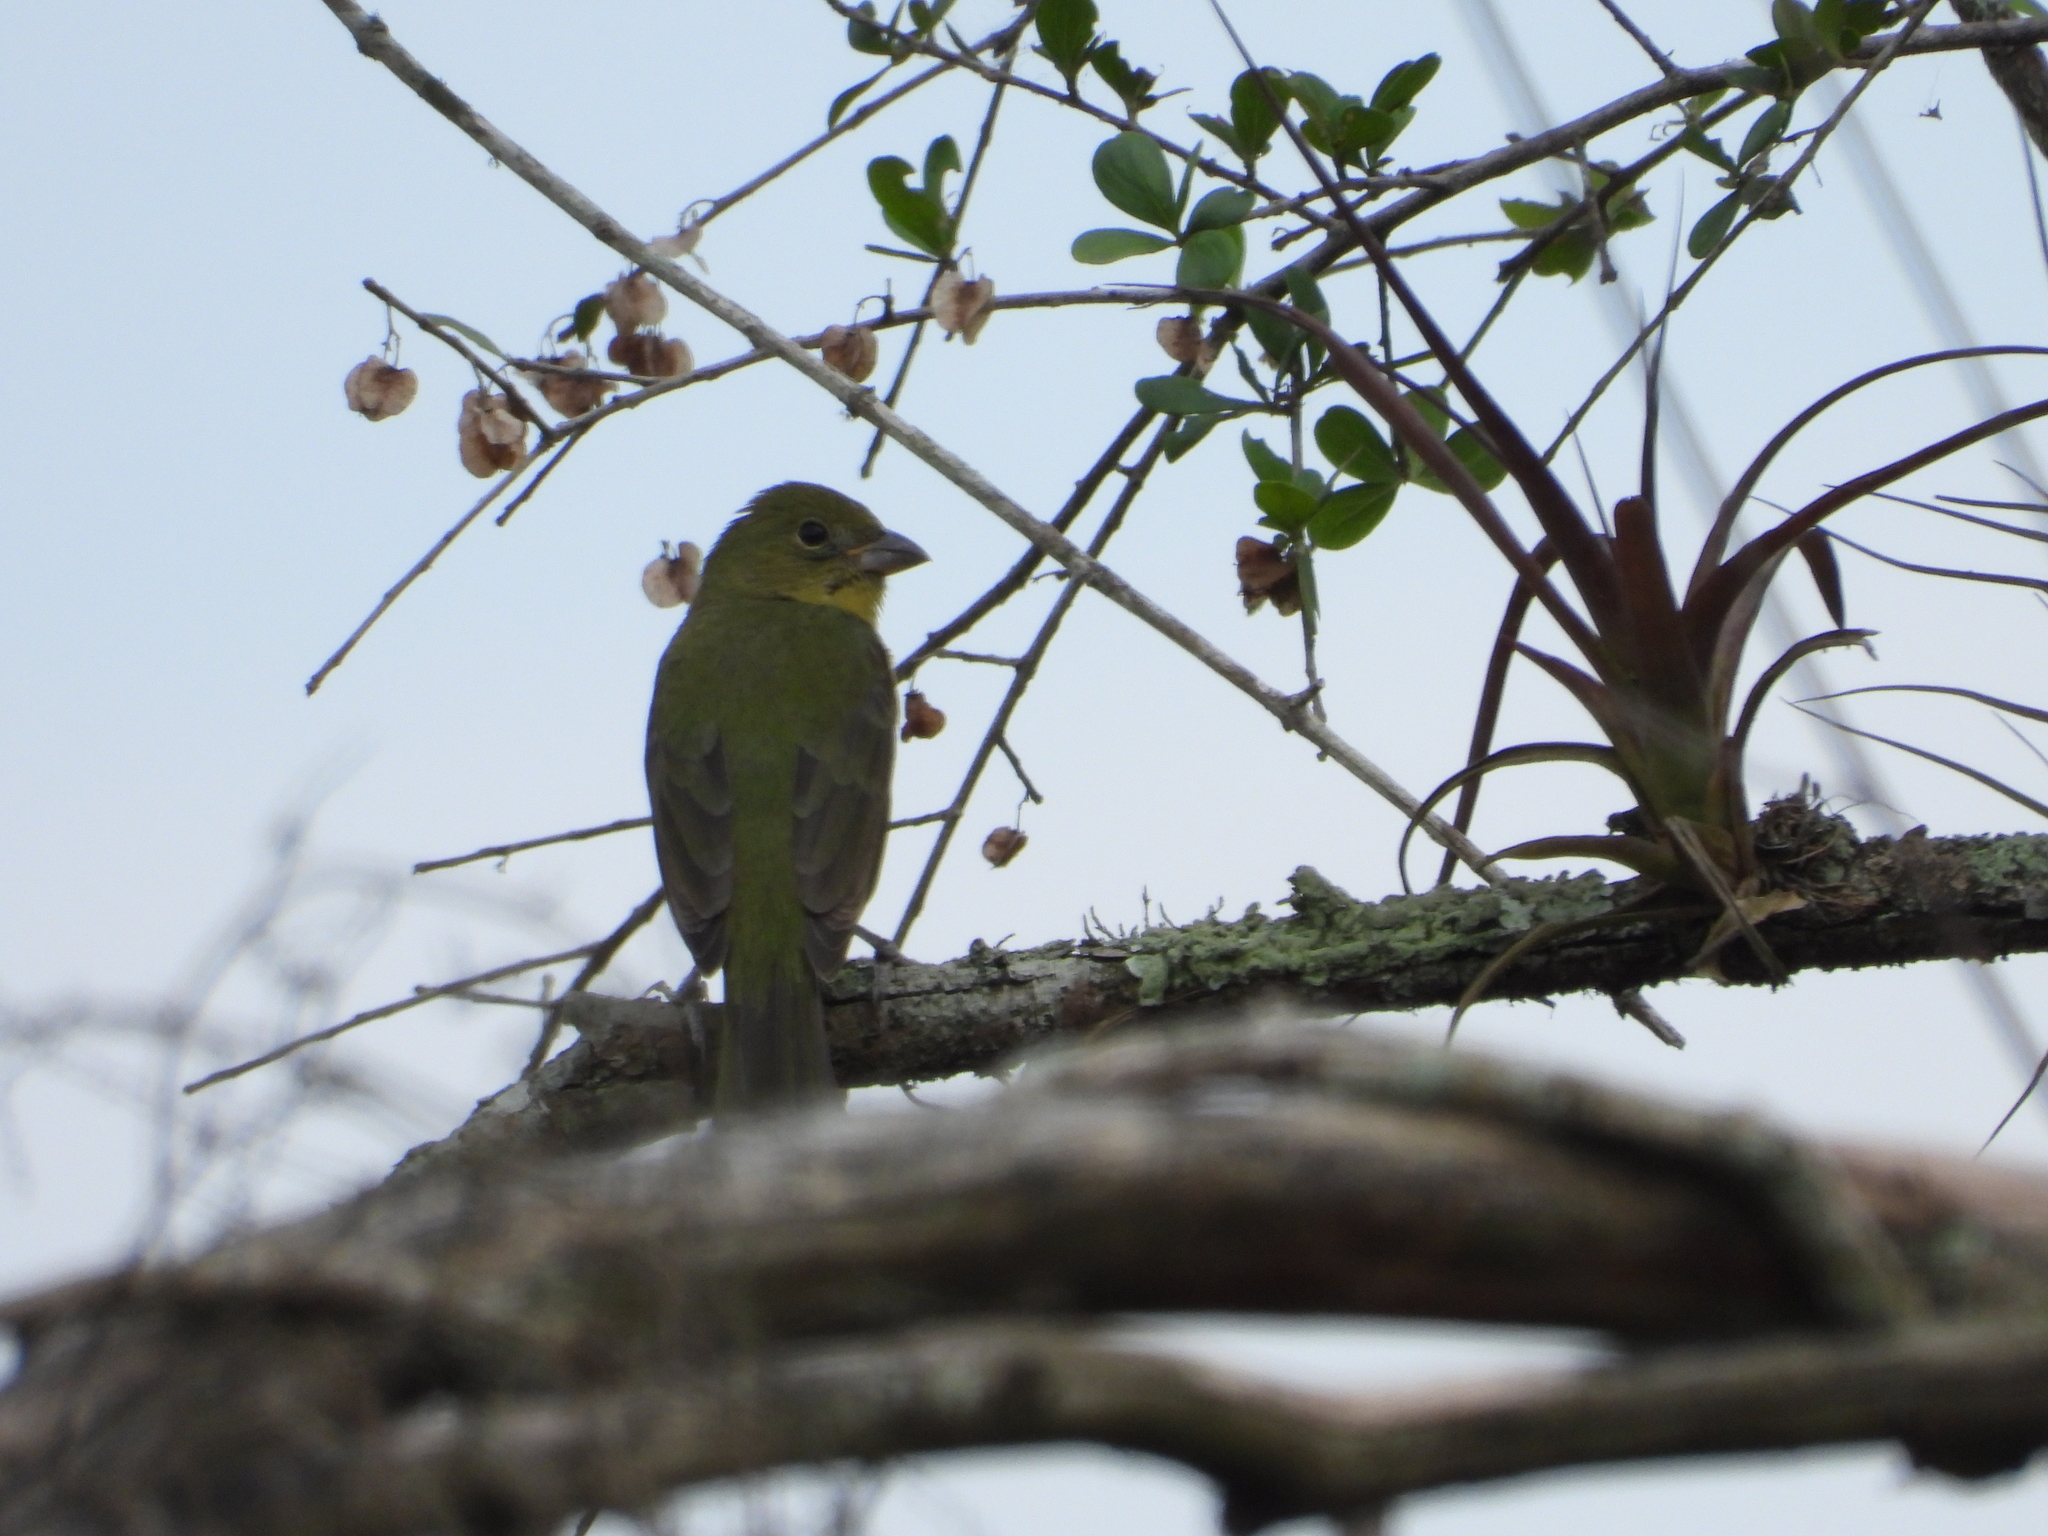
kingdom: Animalia
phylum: Chordata
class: Aves
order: Passeriformes
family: Cardinalidae
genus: Passerina
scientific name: Passerina ciris
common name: Painted bunting
